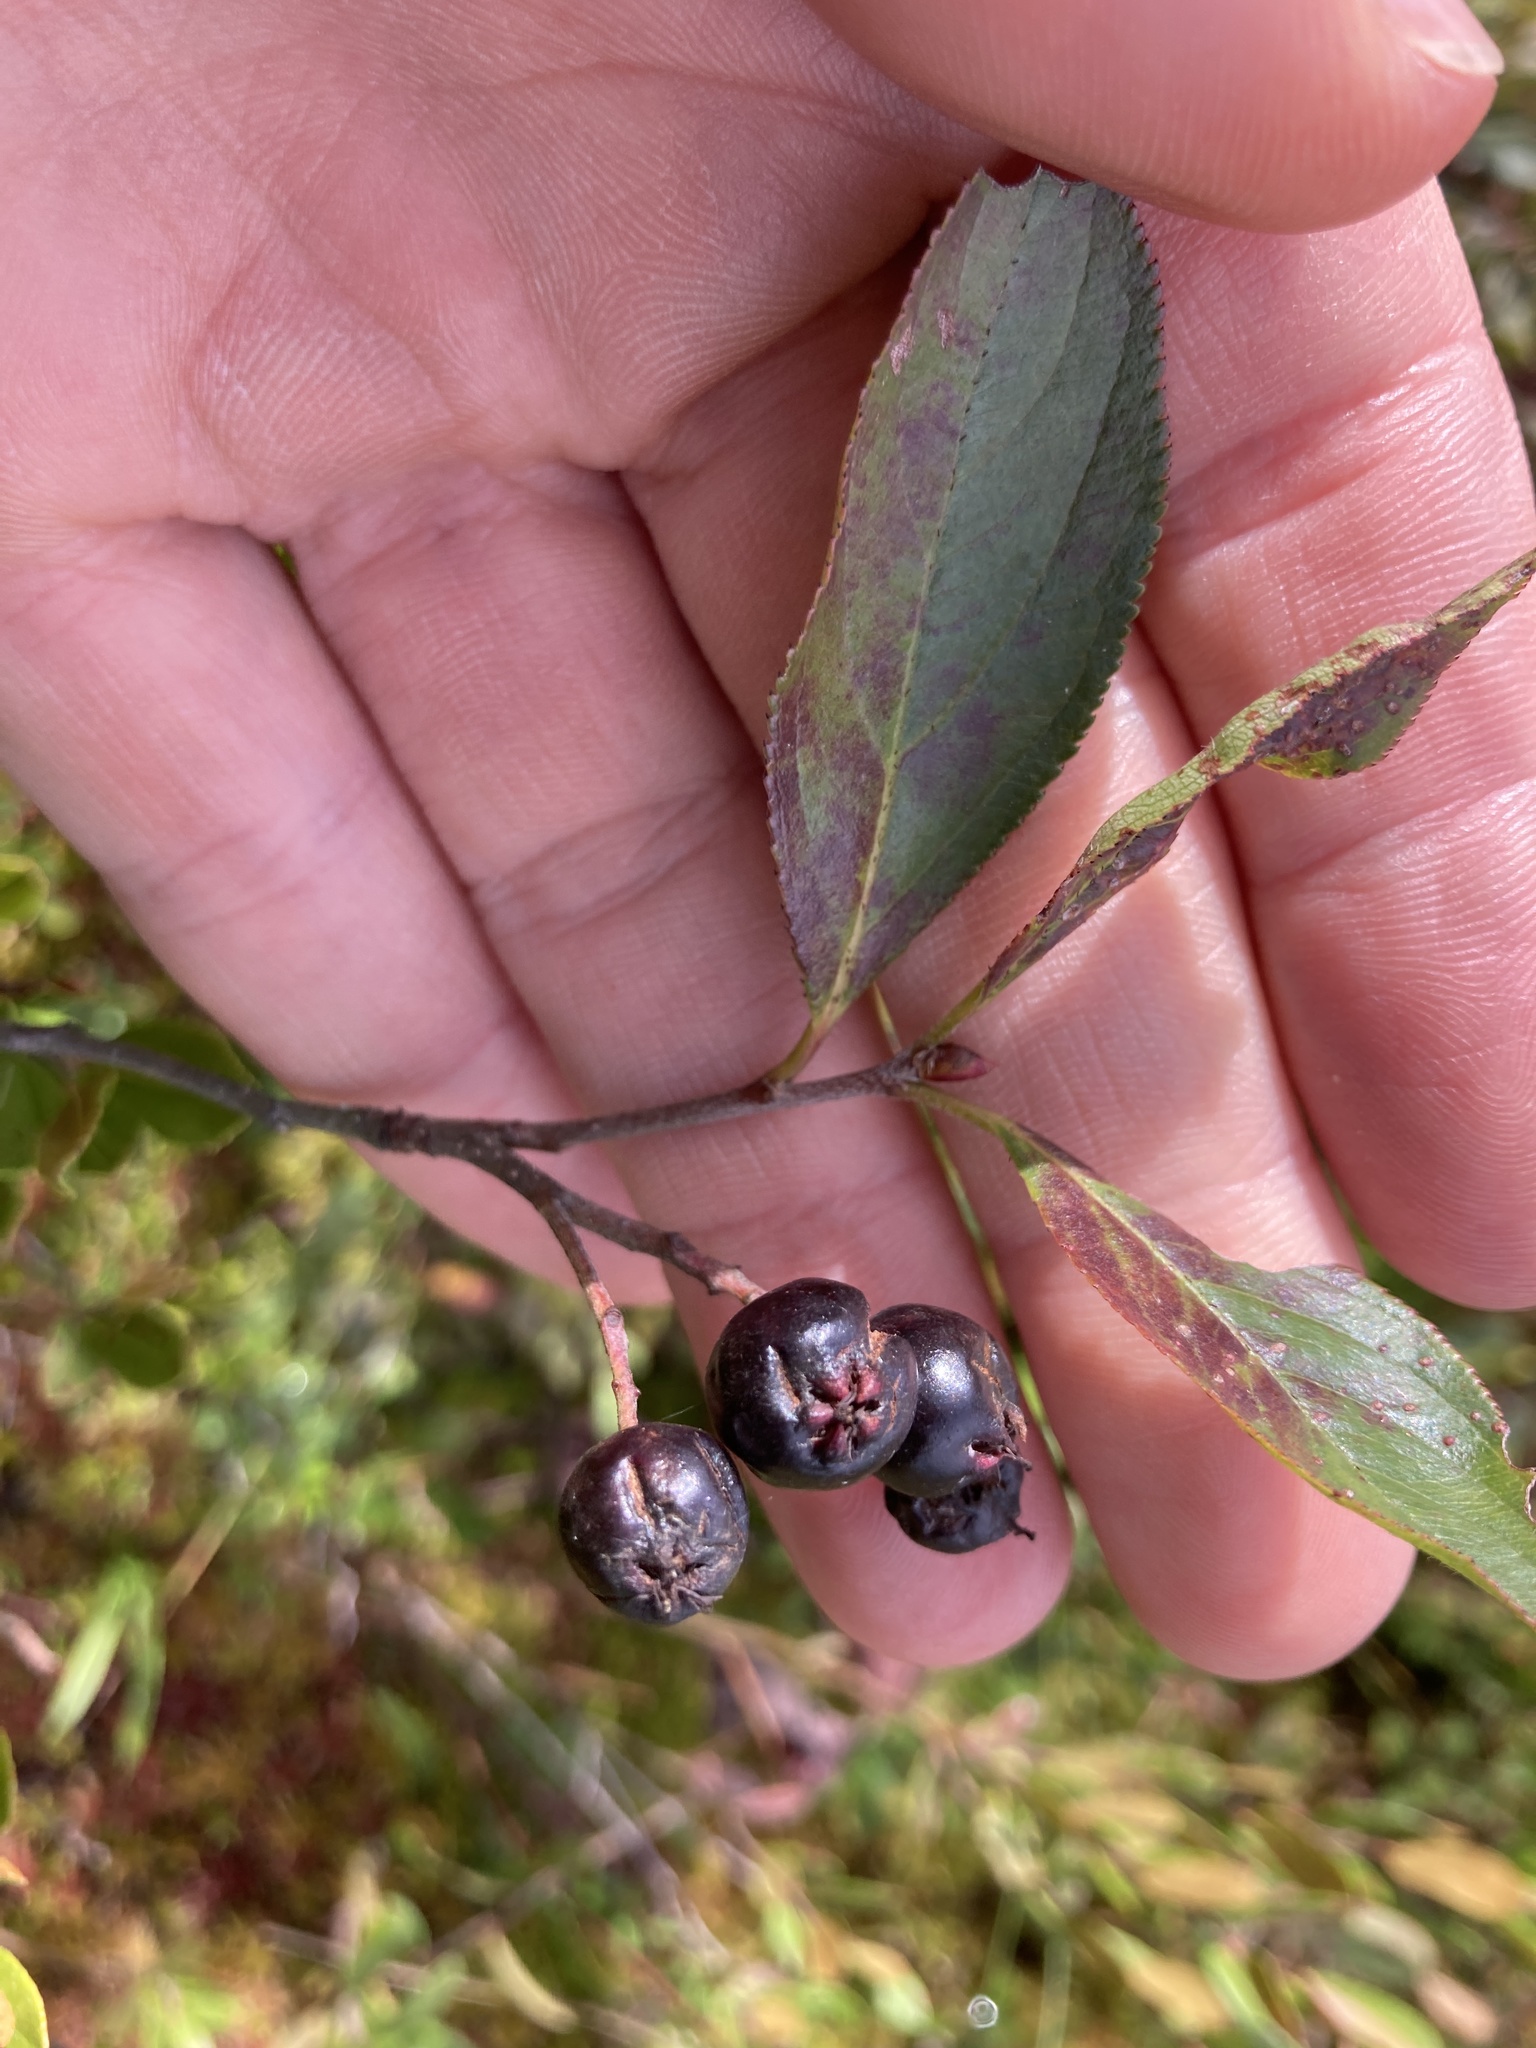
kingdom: Plantae
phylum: Tracheophyta
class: Magnoliopsida
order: Rosales
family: Rosaceae
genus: Aronia
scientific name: Aronia melanocarpa
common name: Black chokeberry
